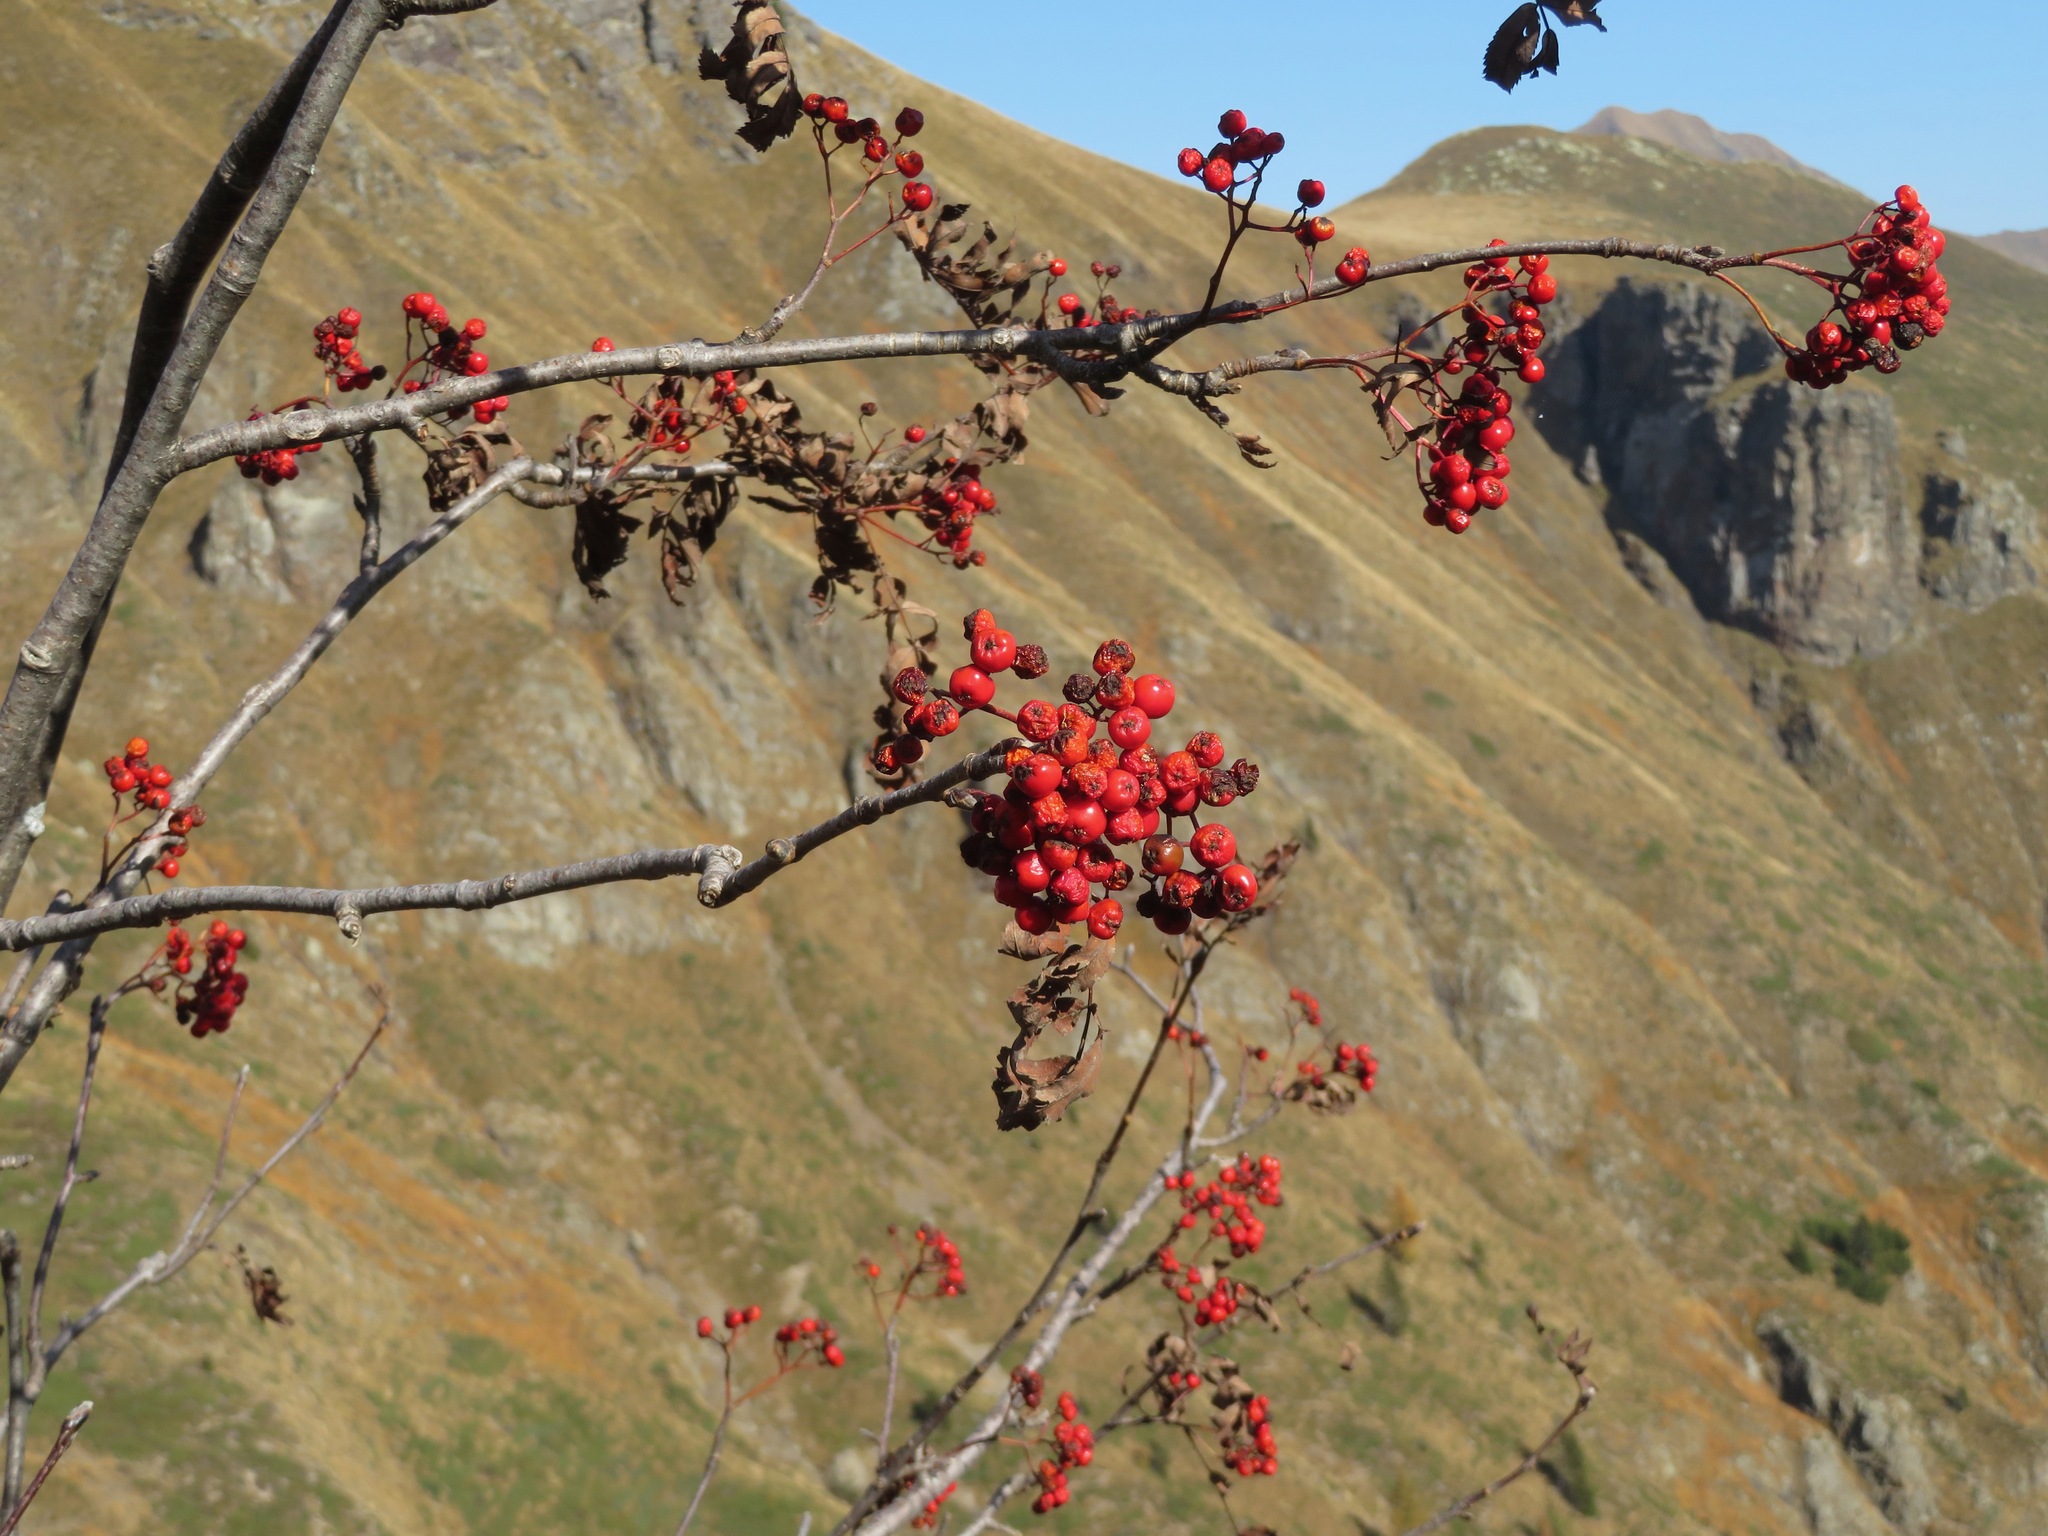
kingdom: Plantae
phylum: Tracheophyta
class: Magnoliopsida
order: Rosales
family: Rosaceae
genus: Sorbus
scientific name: Sorbus aucuparia
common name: Rowan
